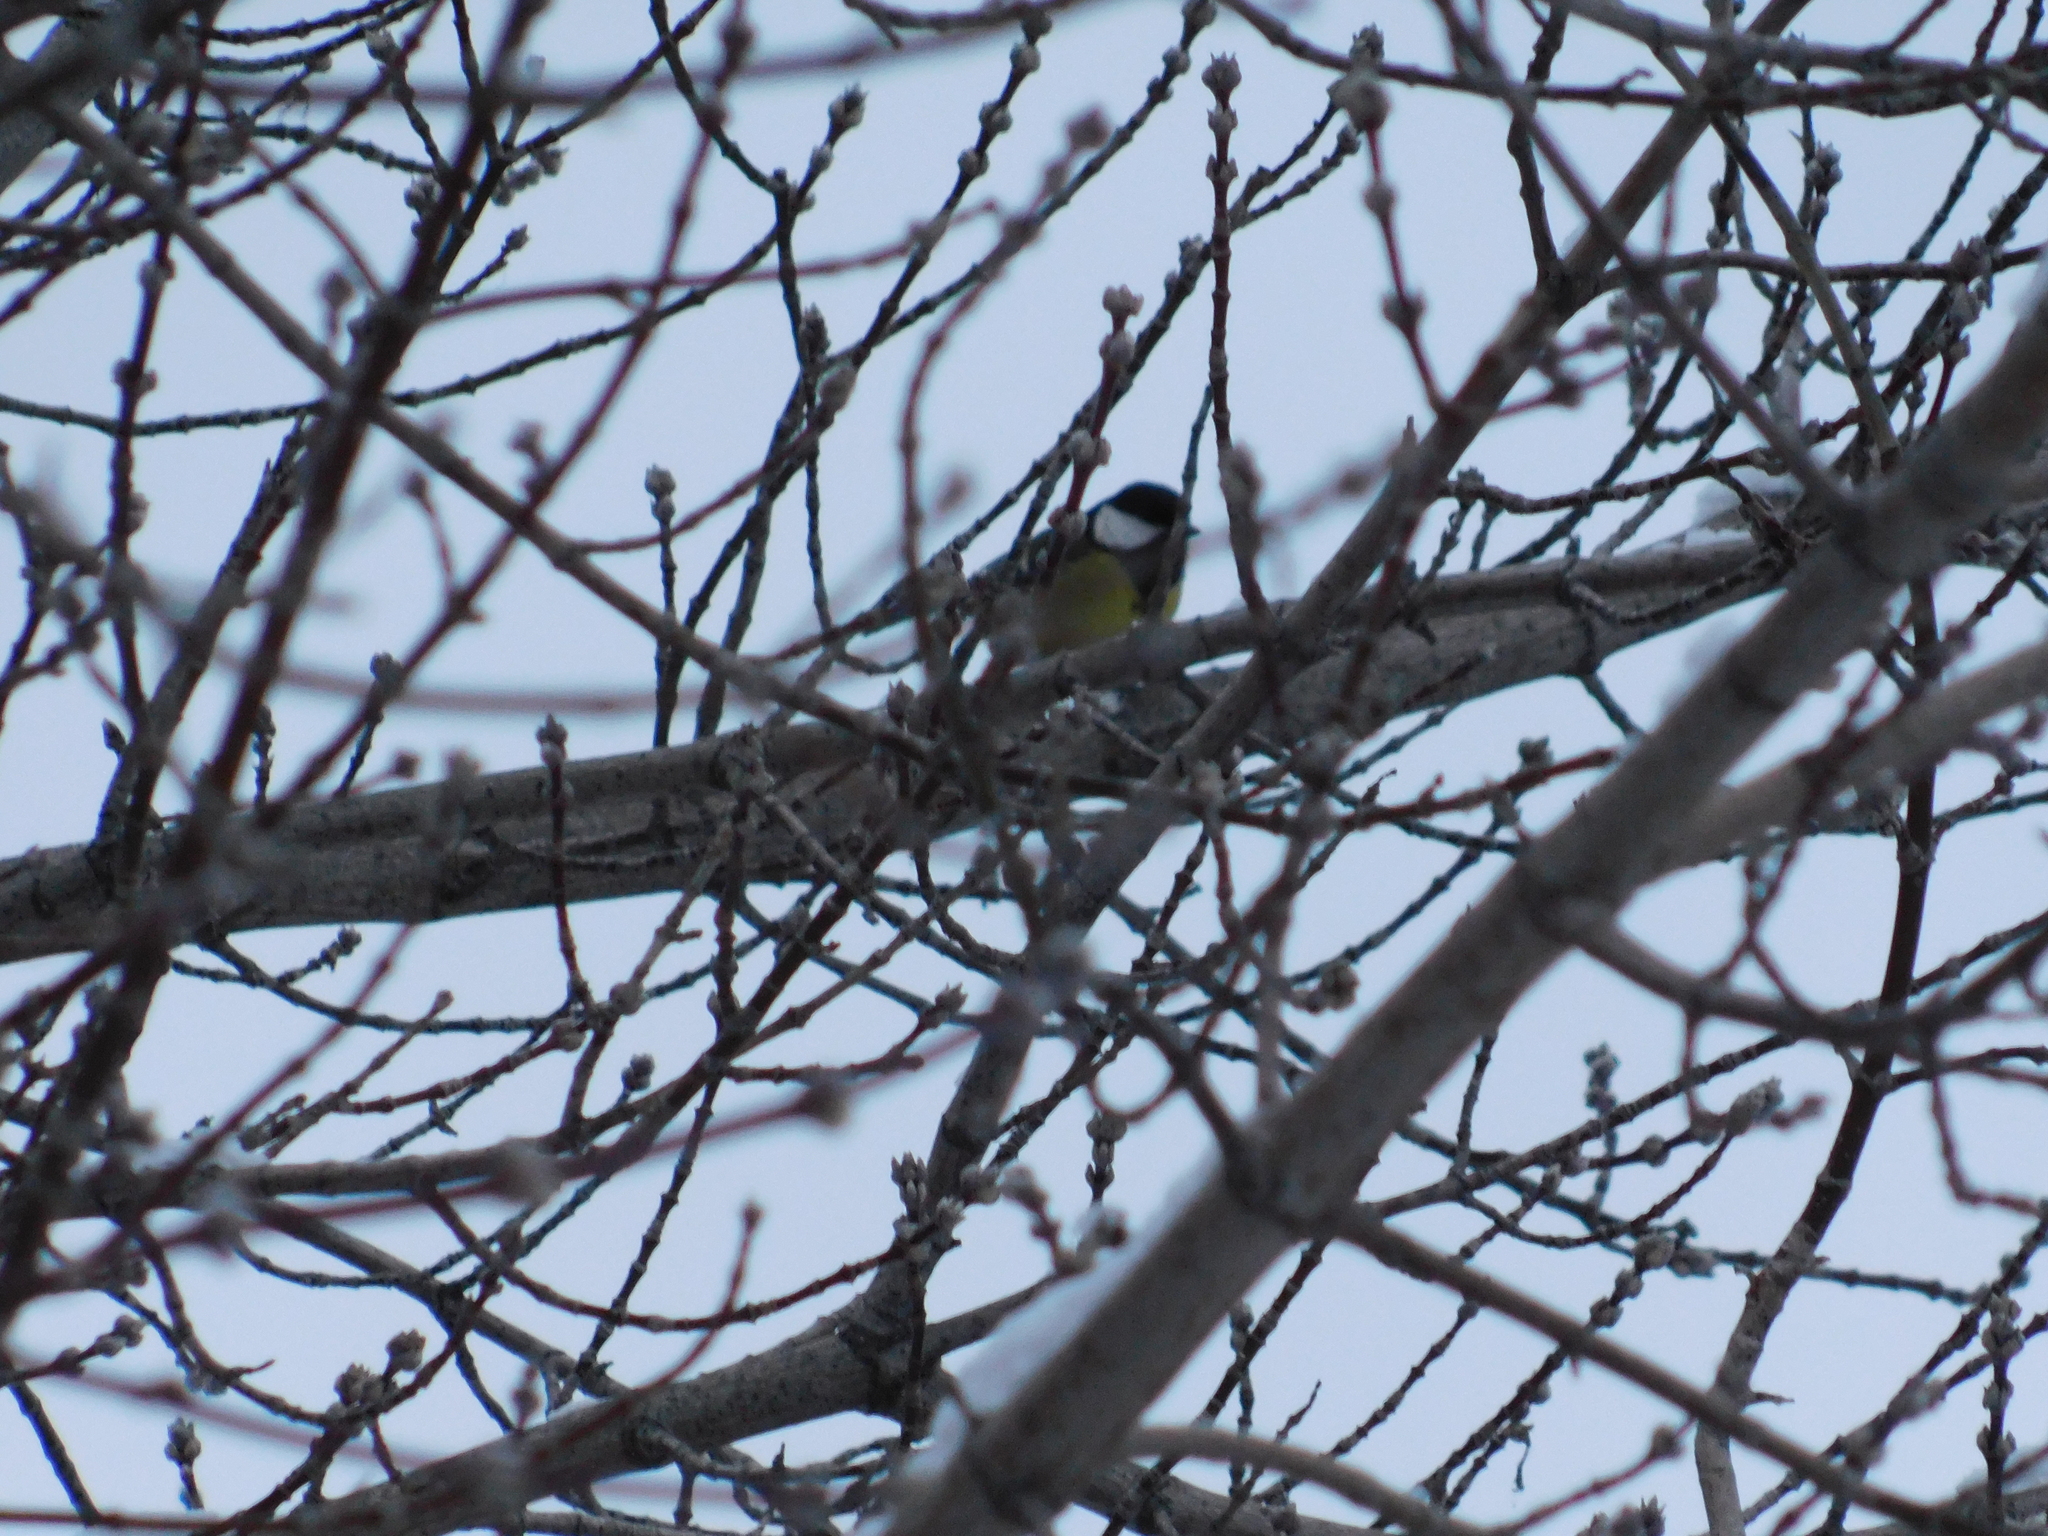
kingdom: Animalia
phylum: Chordata
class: Aves
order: Passeriformes
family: Paridae
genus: Parus
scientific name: Parus major
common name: Great tit
